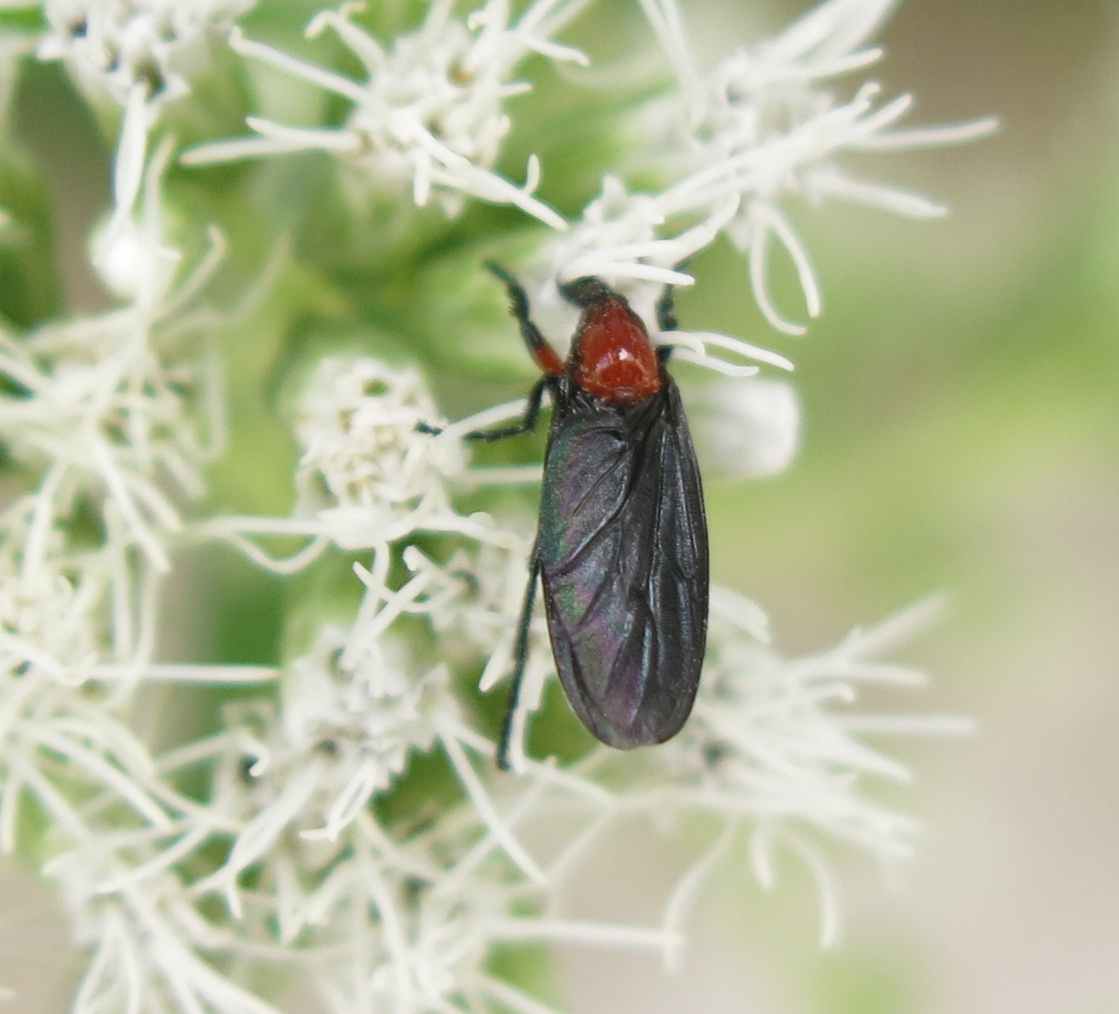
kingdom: Animalia
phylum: Arthropoda
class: Insecta
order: Diptera
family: Bibionidae
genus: Dilophus
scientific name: Dilophus pectoralis
